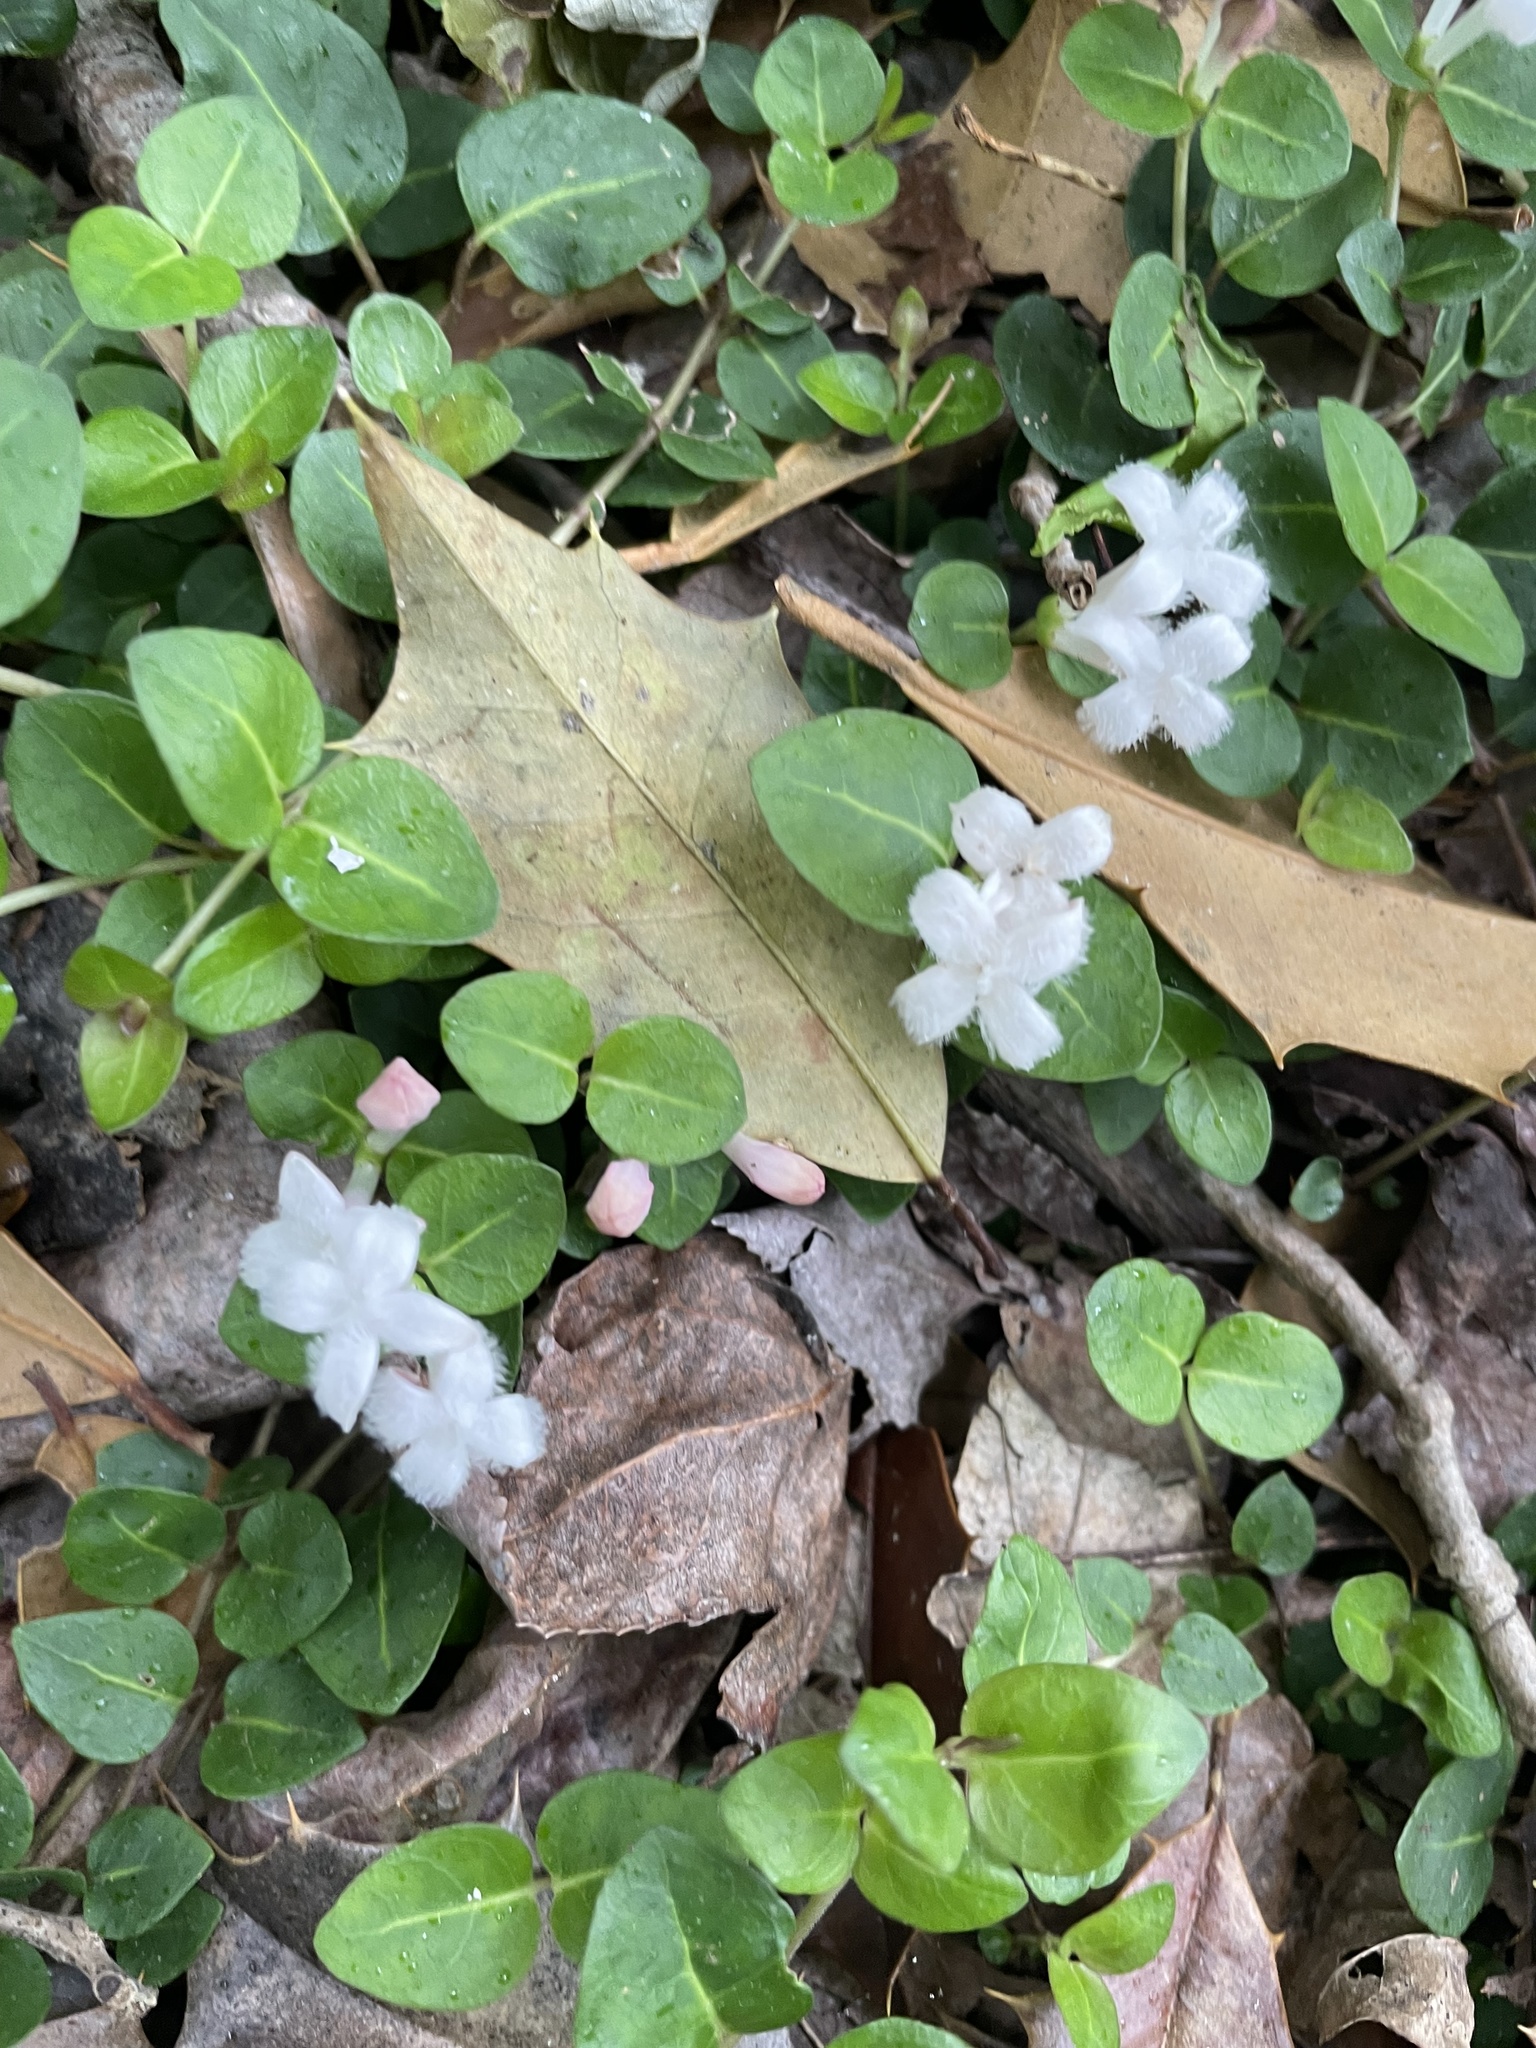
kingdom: Plantae
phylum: Tracheophyta
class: Magnoliopsida
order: Gentianales
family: Rubiaceae
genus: Mitchella
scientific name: Mitchella repens
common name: Partridge-berry
